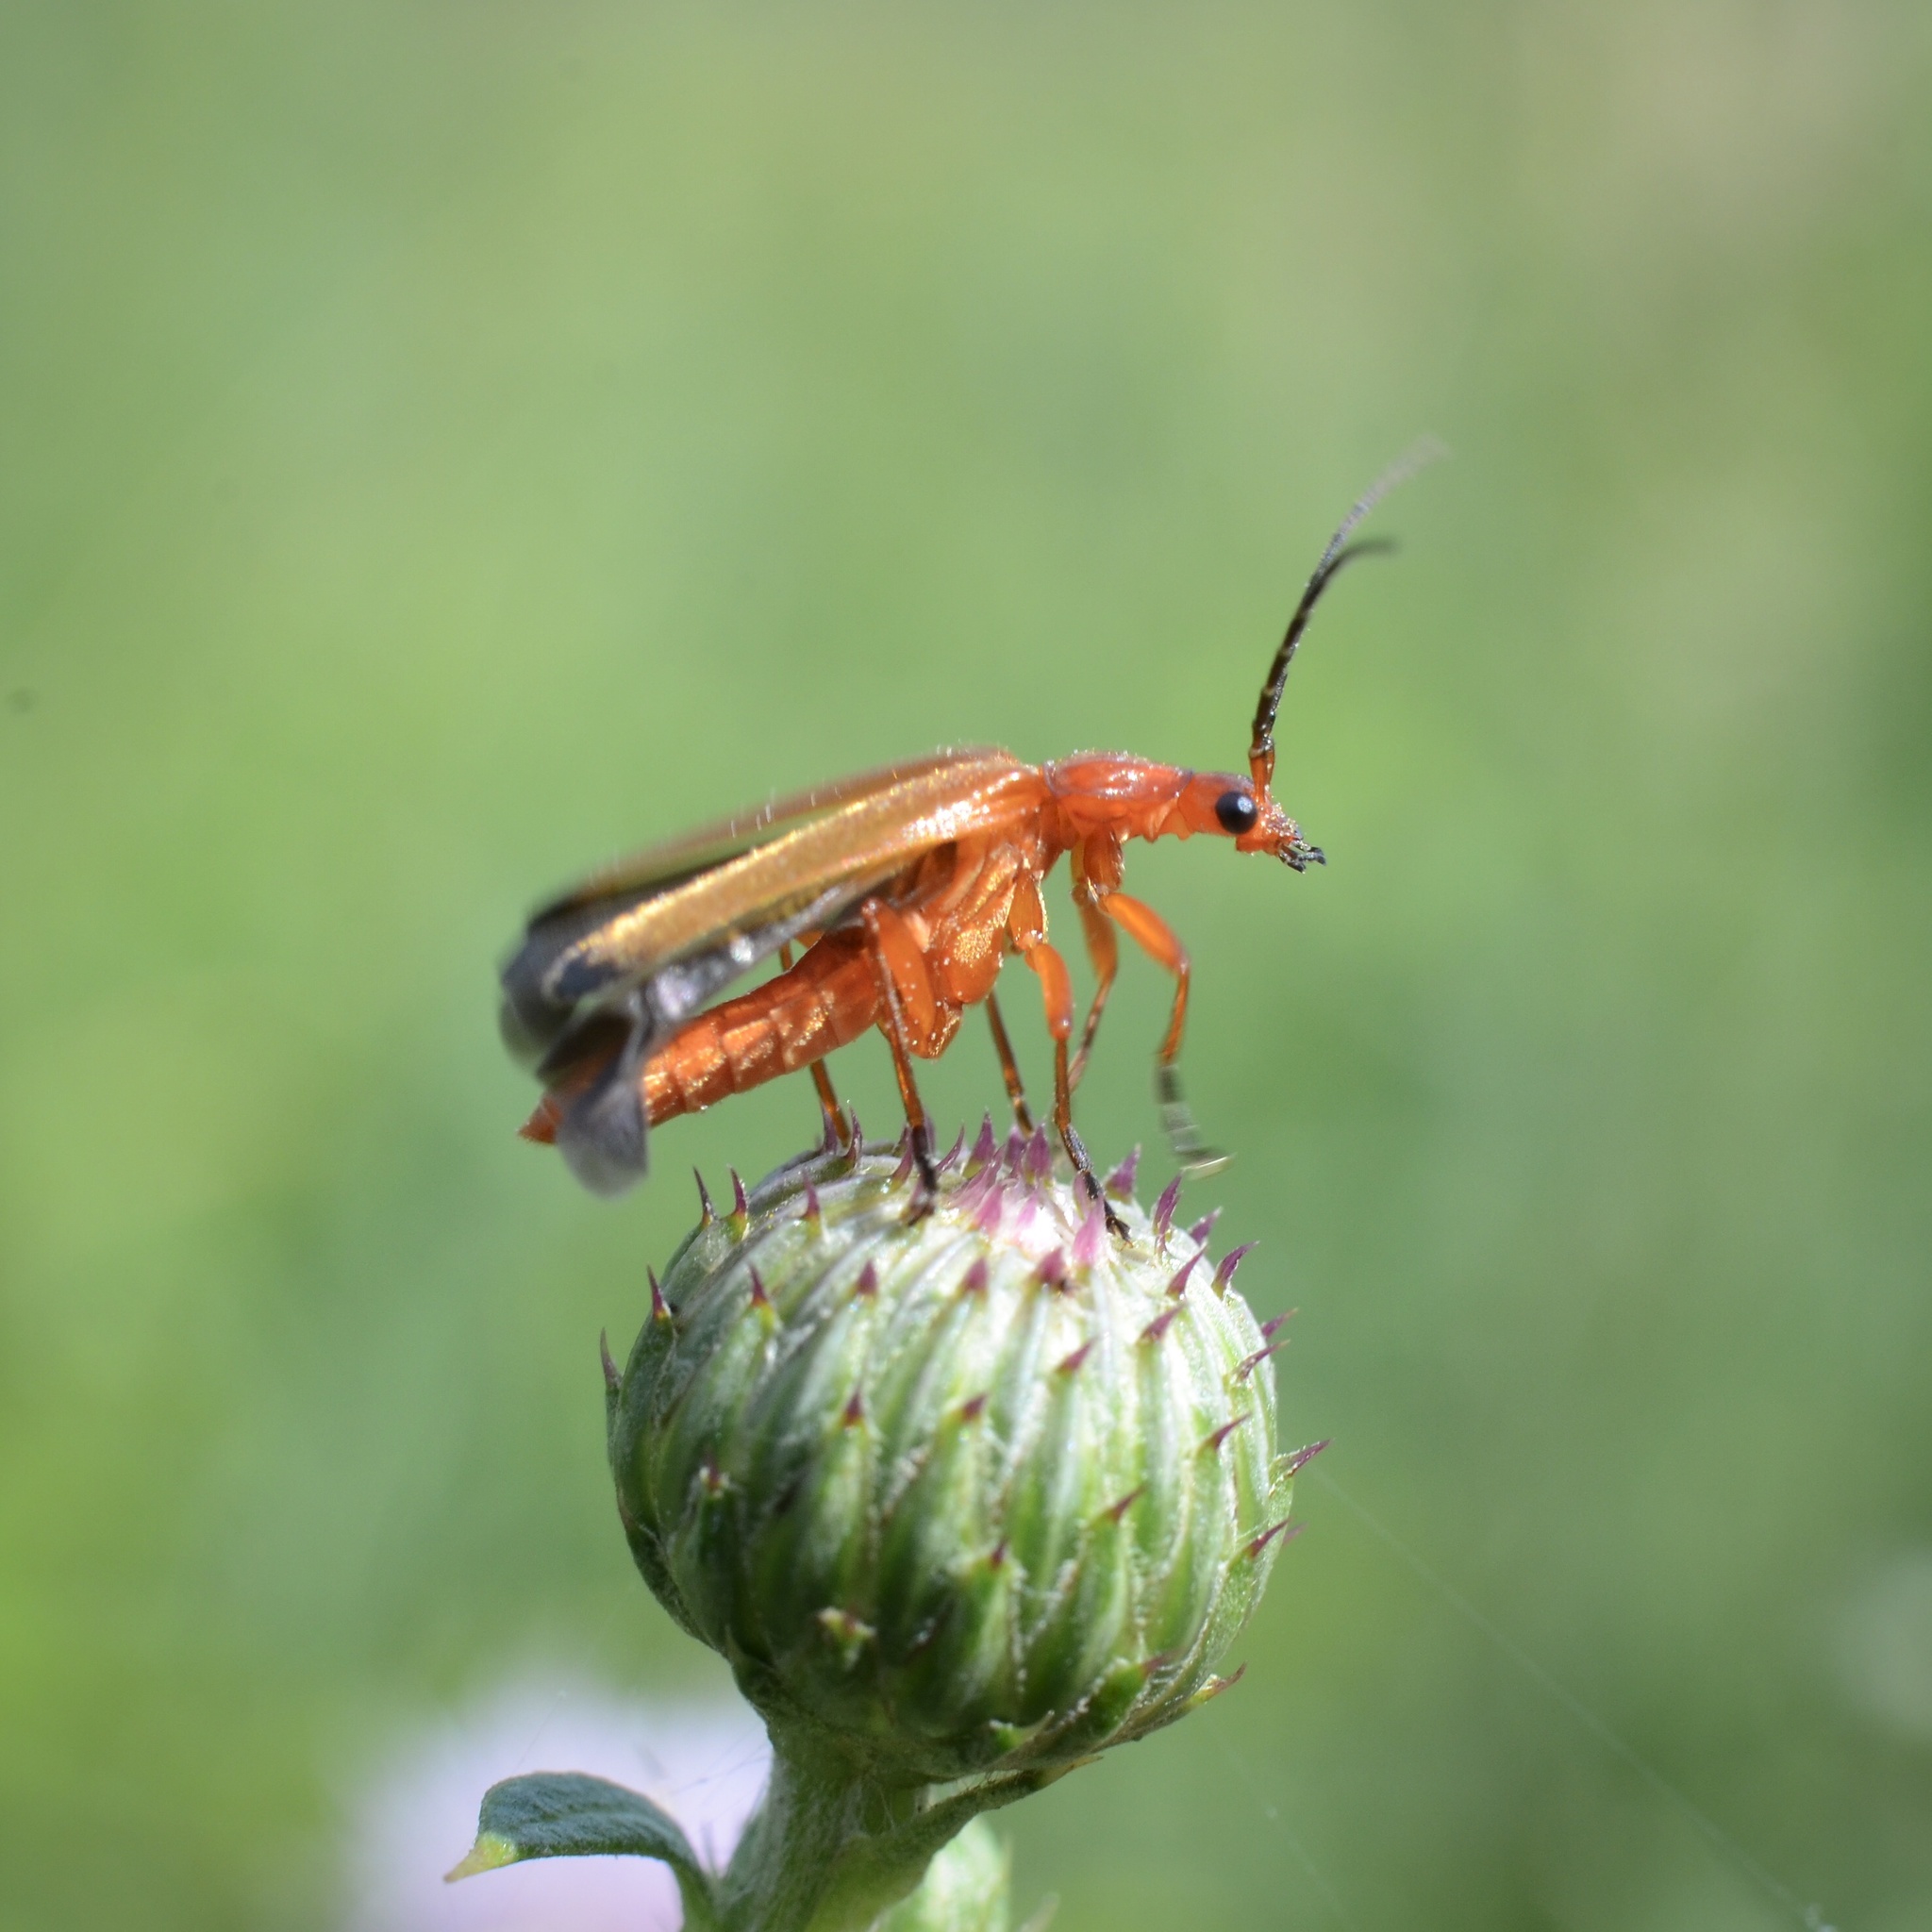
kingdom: Animalia
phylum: Arthropoda
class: Insecta
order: Coleoptera
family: Cantharidae
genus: Rhagonycha
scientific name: Rhagonycha fulva
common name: Common red soldier beetle
